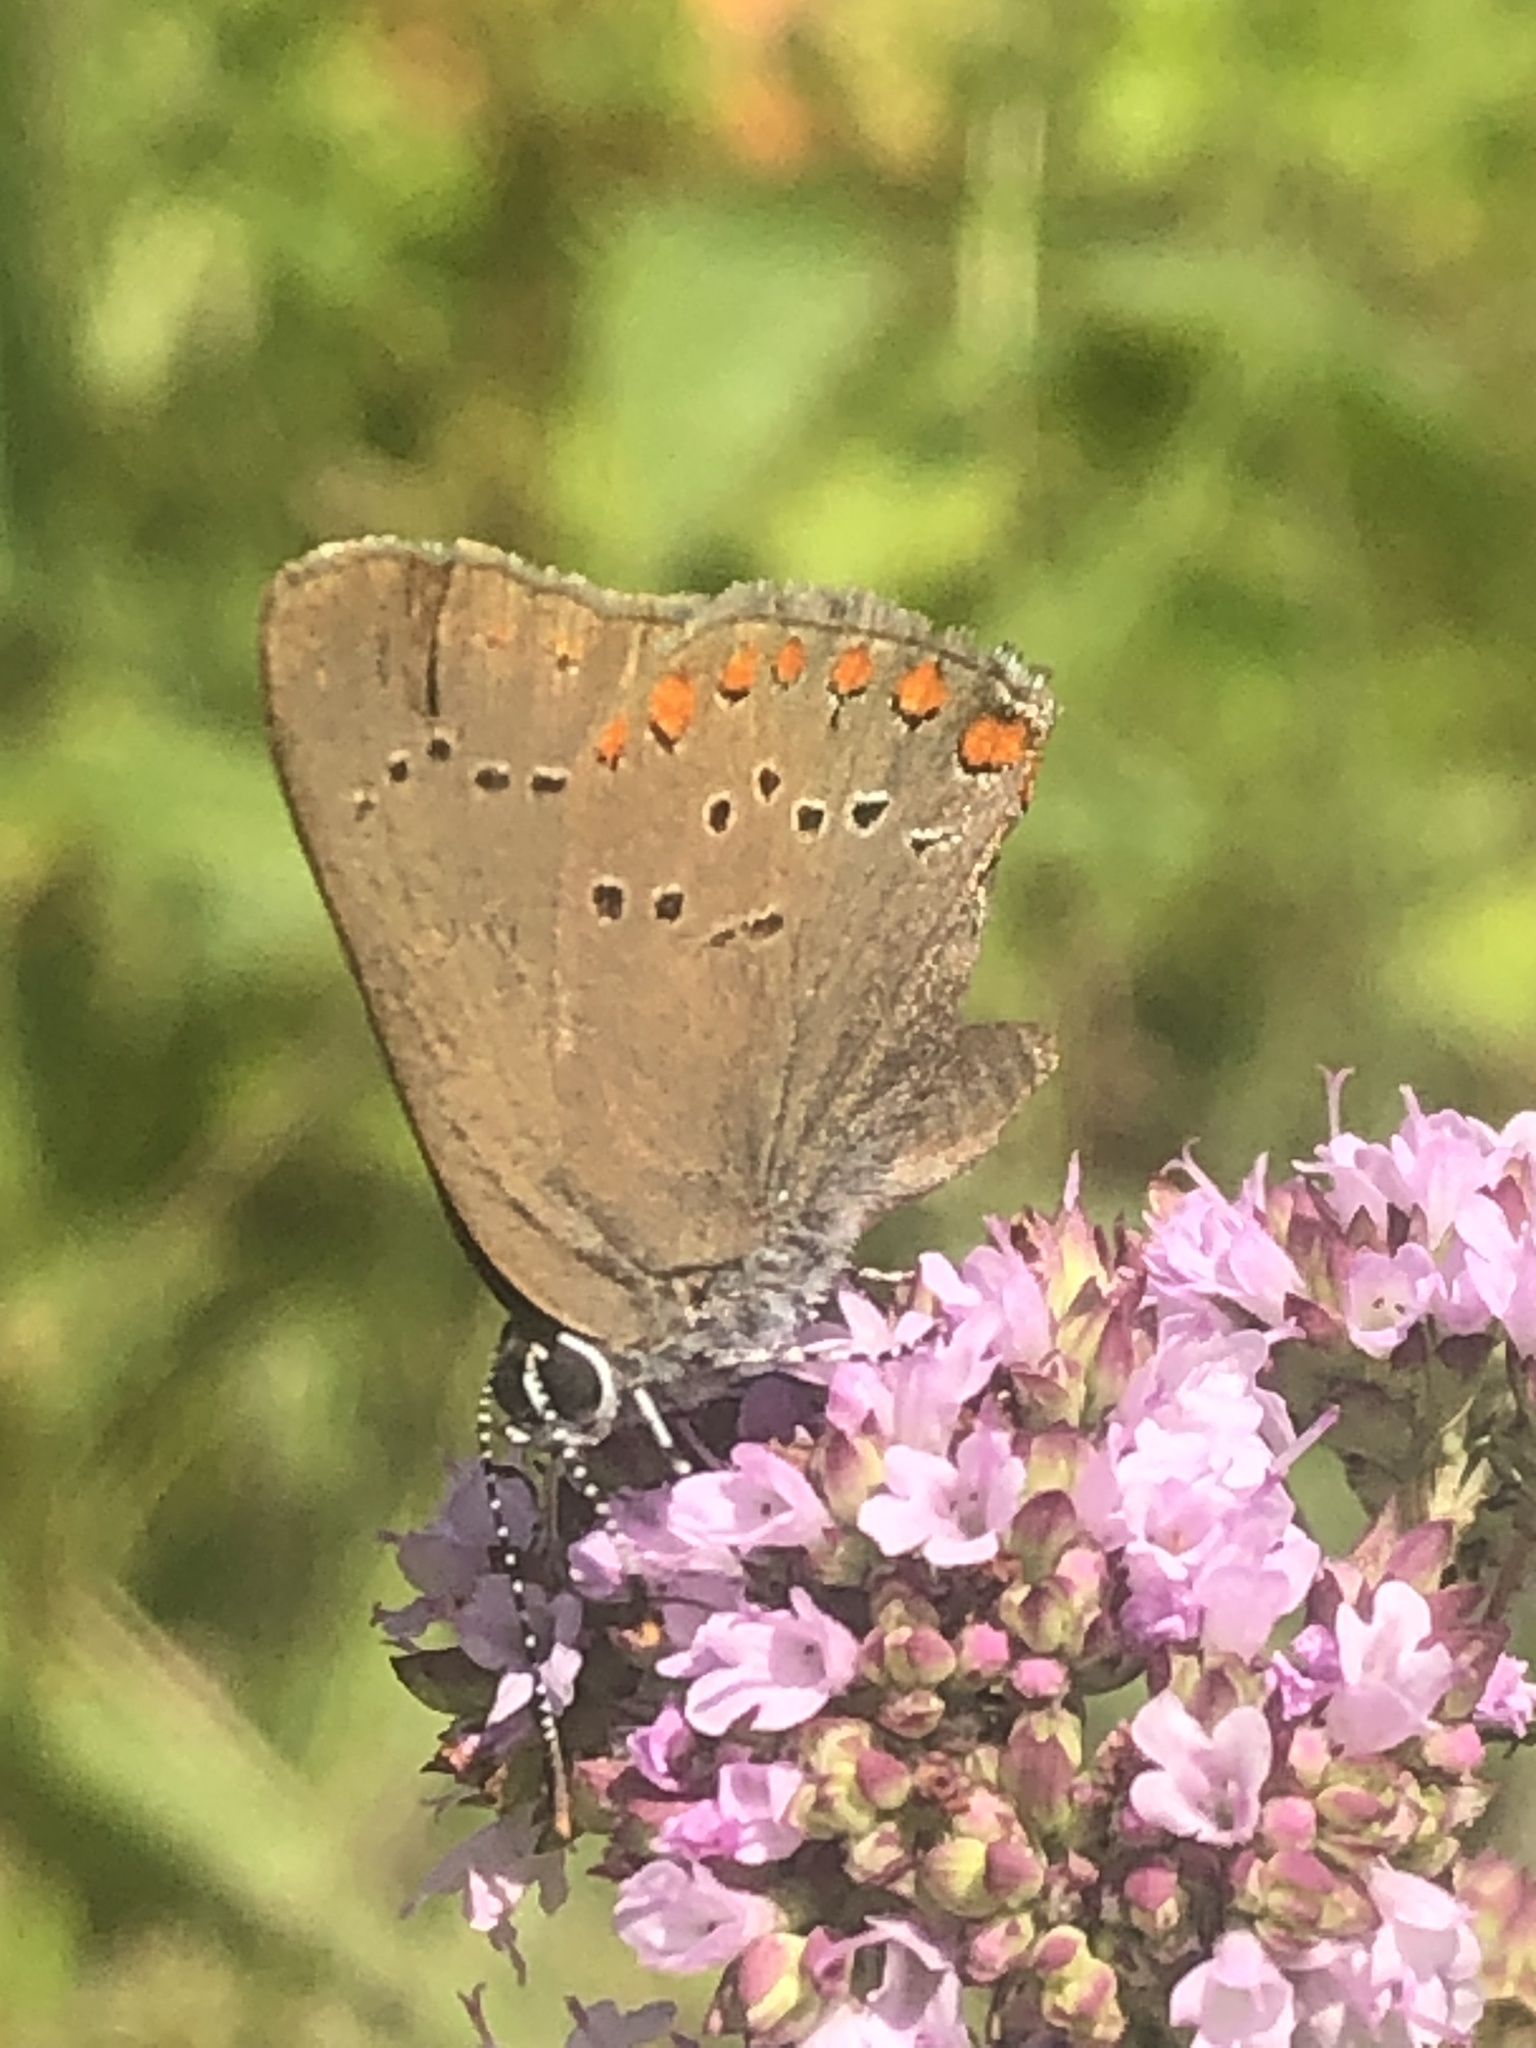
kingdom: Animalia
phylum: Arthropoda
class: Insecta
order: Lepidoptera
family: Lycaenidae
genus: Harkenclenus
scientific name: Harkenclenus titus
